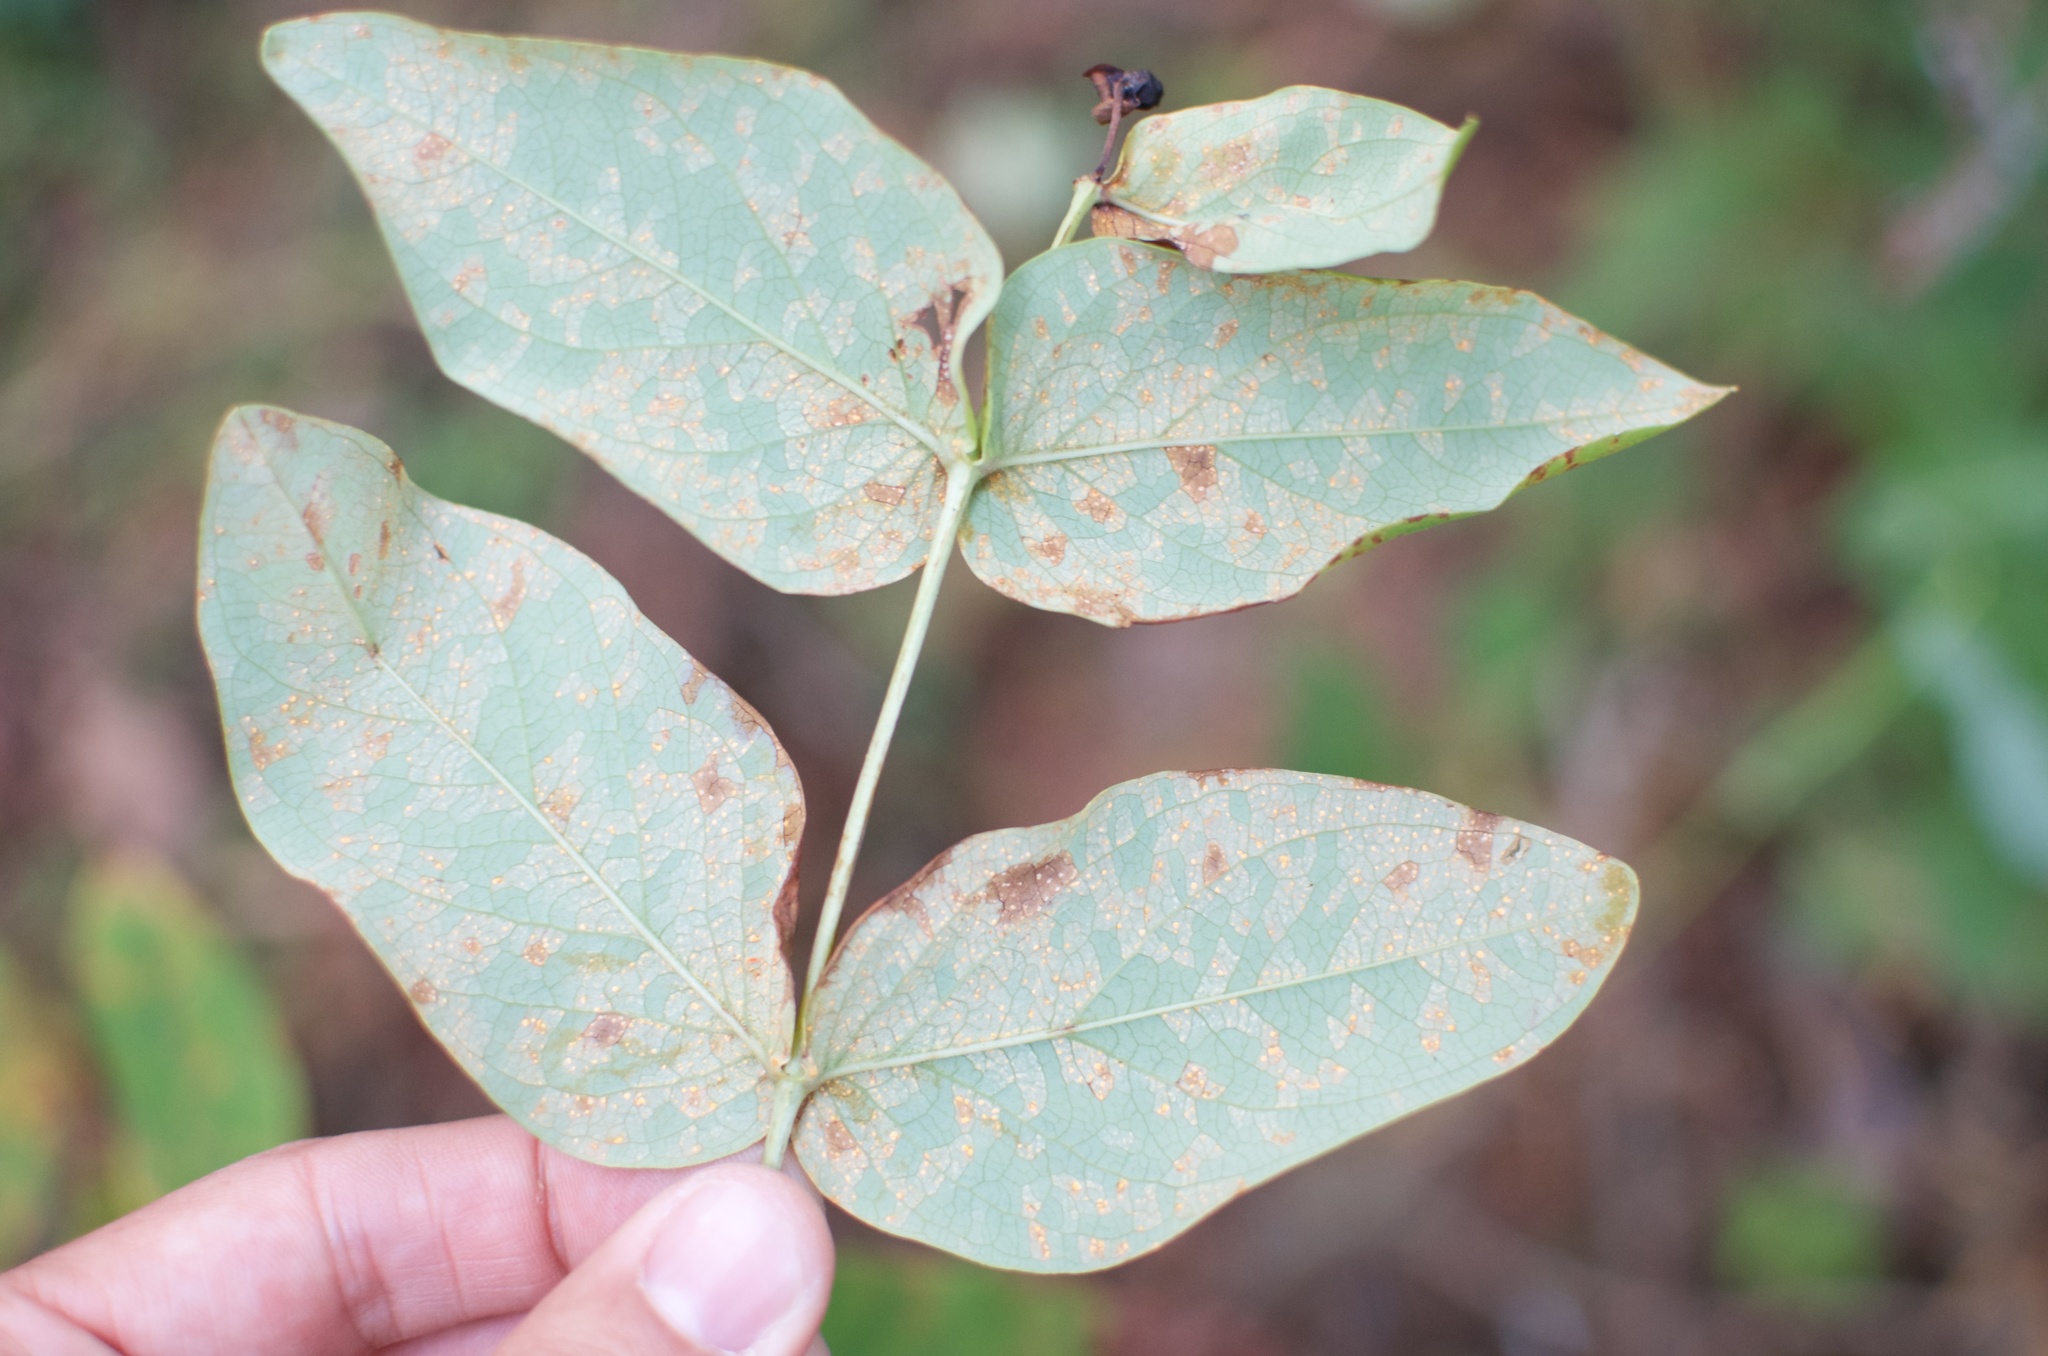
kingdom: Fungi
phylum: Basidiomycota
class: Pucciniomycetes
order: Pucciniales
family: Melampsoraceae
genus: Melampsora
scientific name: Melampsora hypericorum
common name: Tutsan rust
